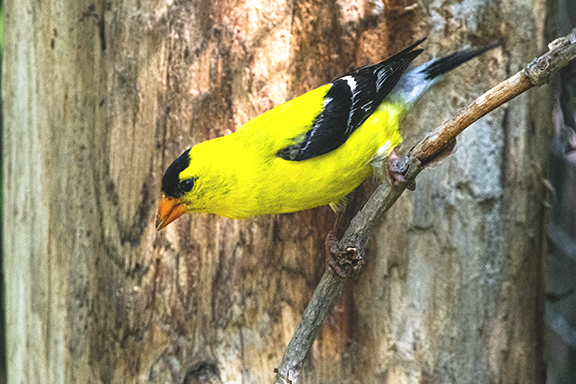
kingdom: Animalia
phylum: Chordata
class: Aves
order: Passeriformes
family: Fringillidae
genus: Spinus
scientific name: Spinus tristis
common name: American goldfinch
